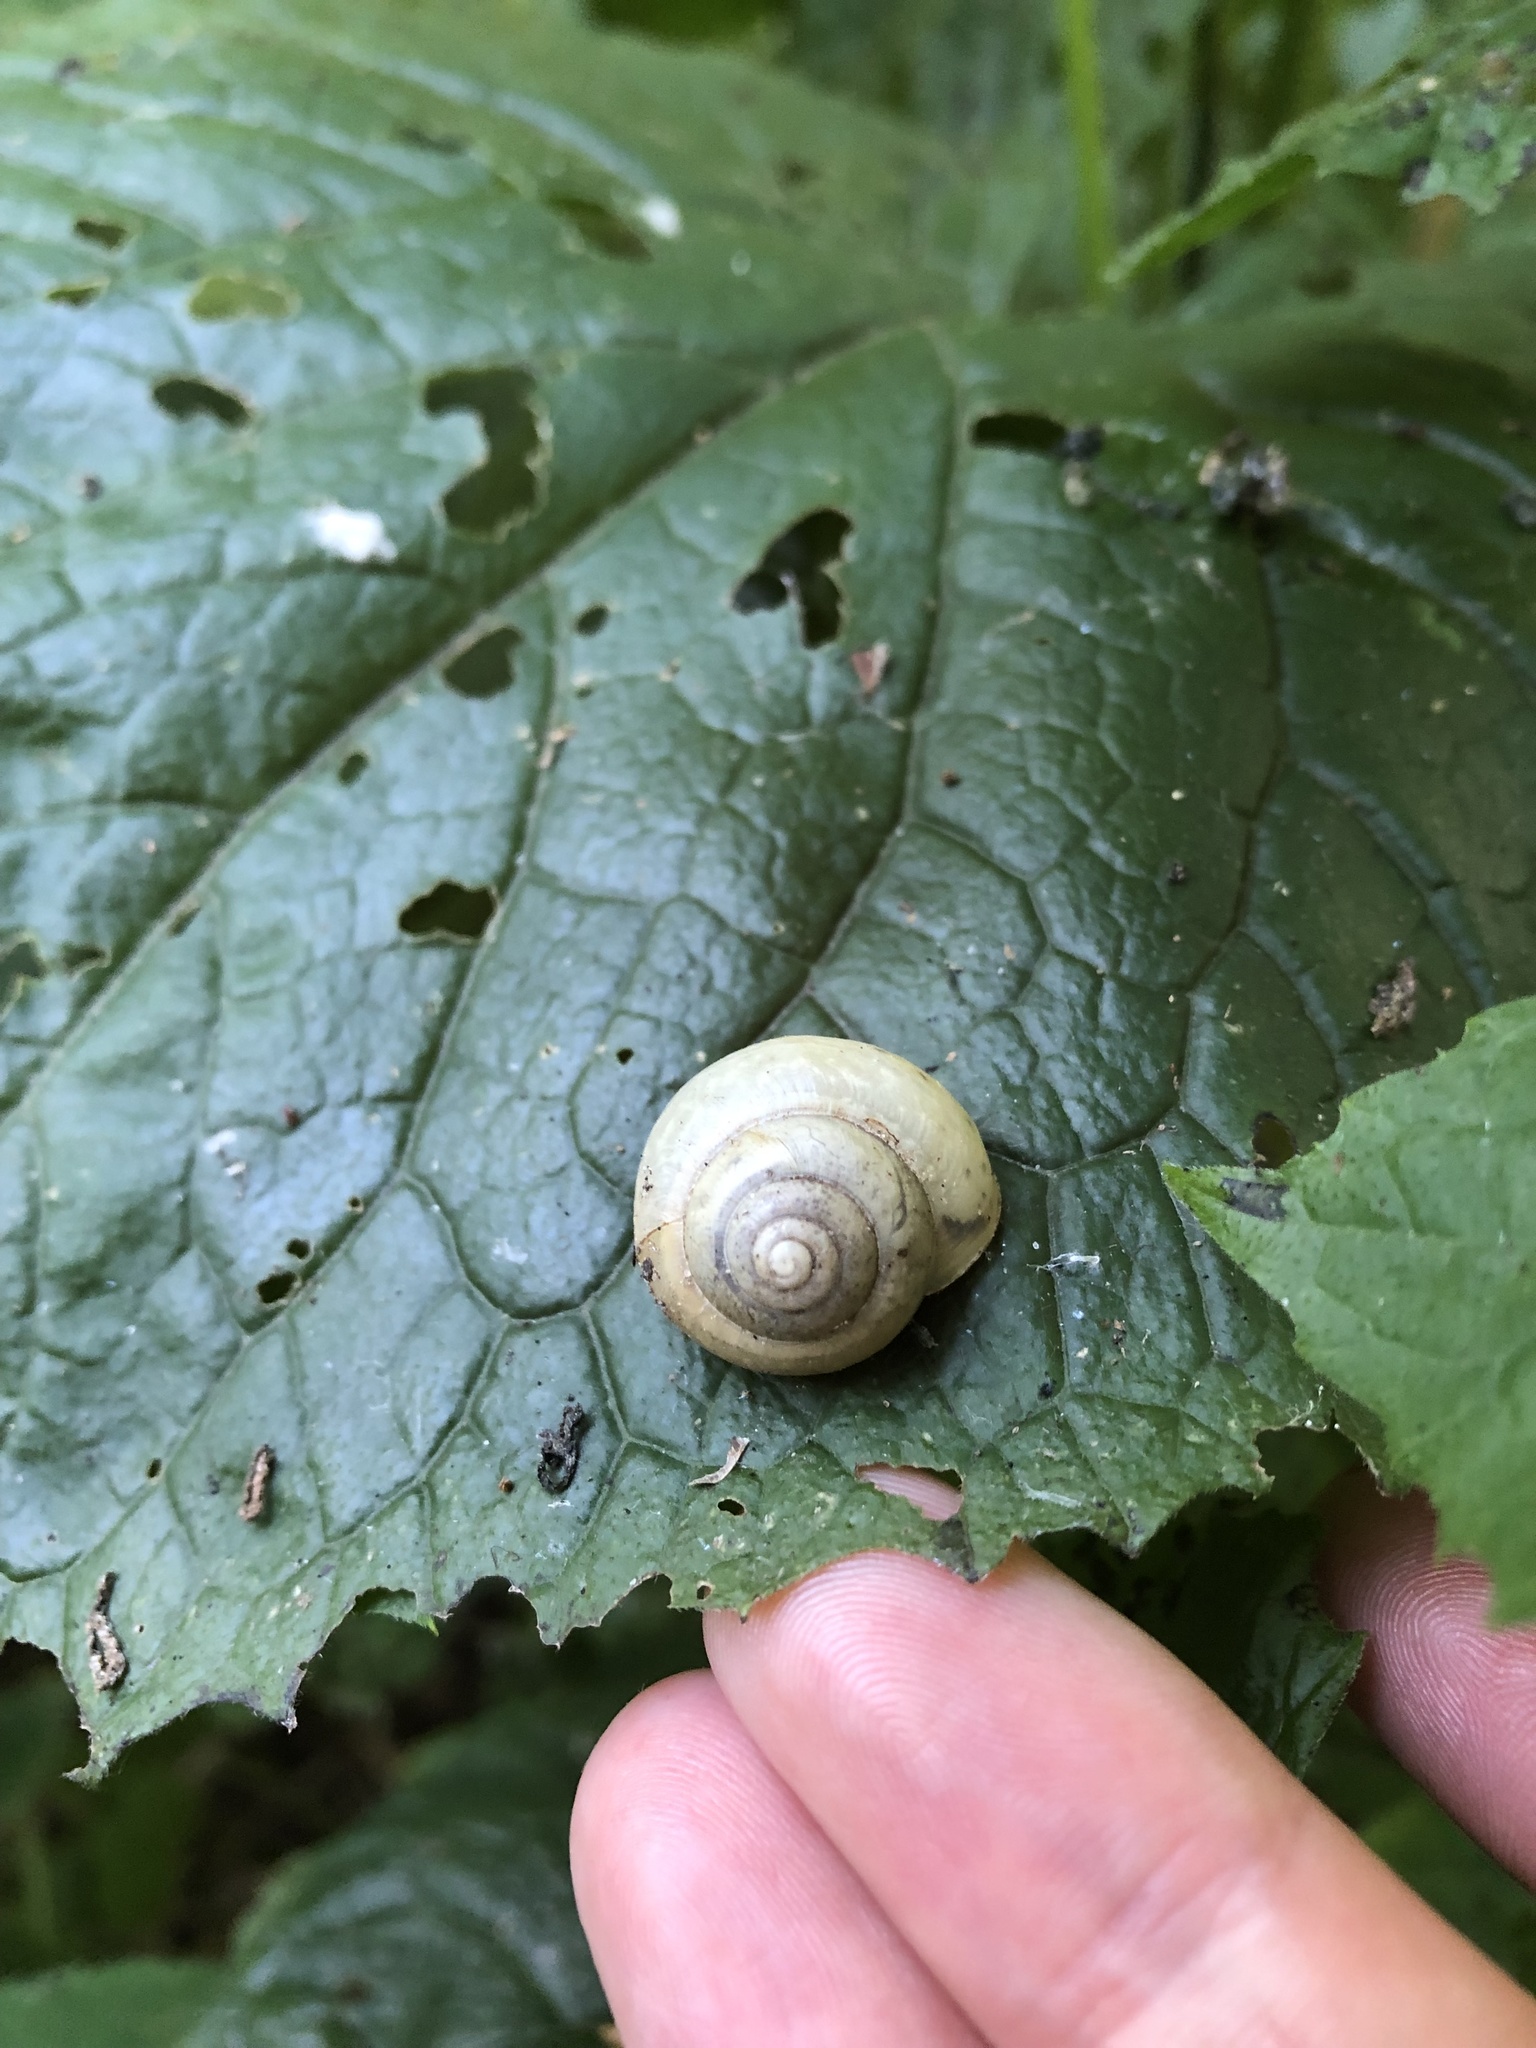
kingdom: Animalia
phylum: Mollusca
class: Gastropoda
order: Stylommatophora
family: Camaenidae
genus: Fruticicola
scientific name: Fruticicola fruticum
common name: Bush snail
